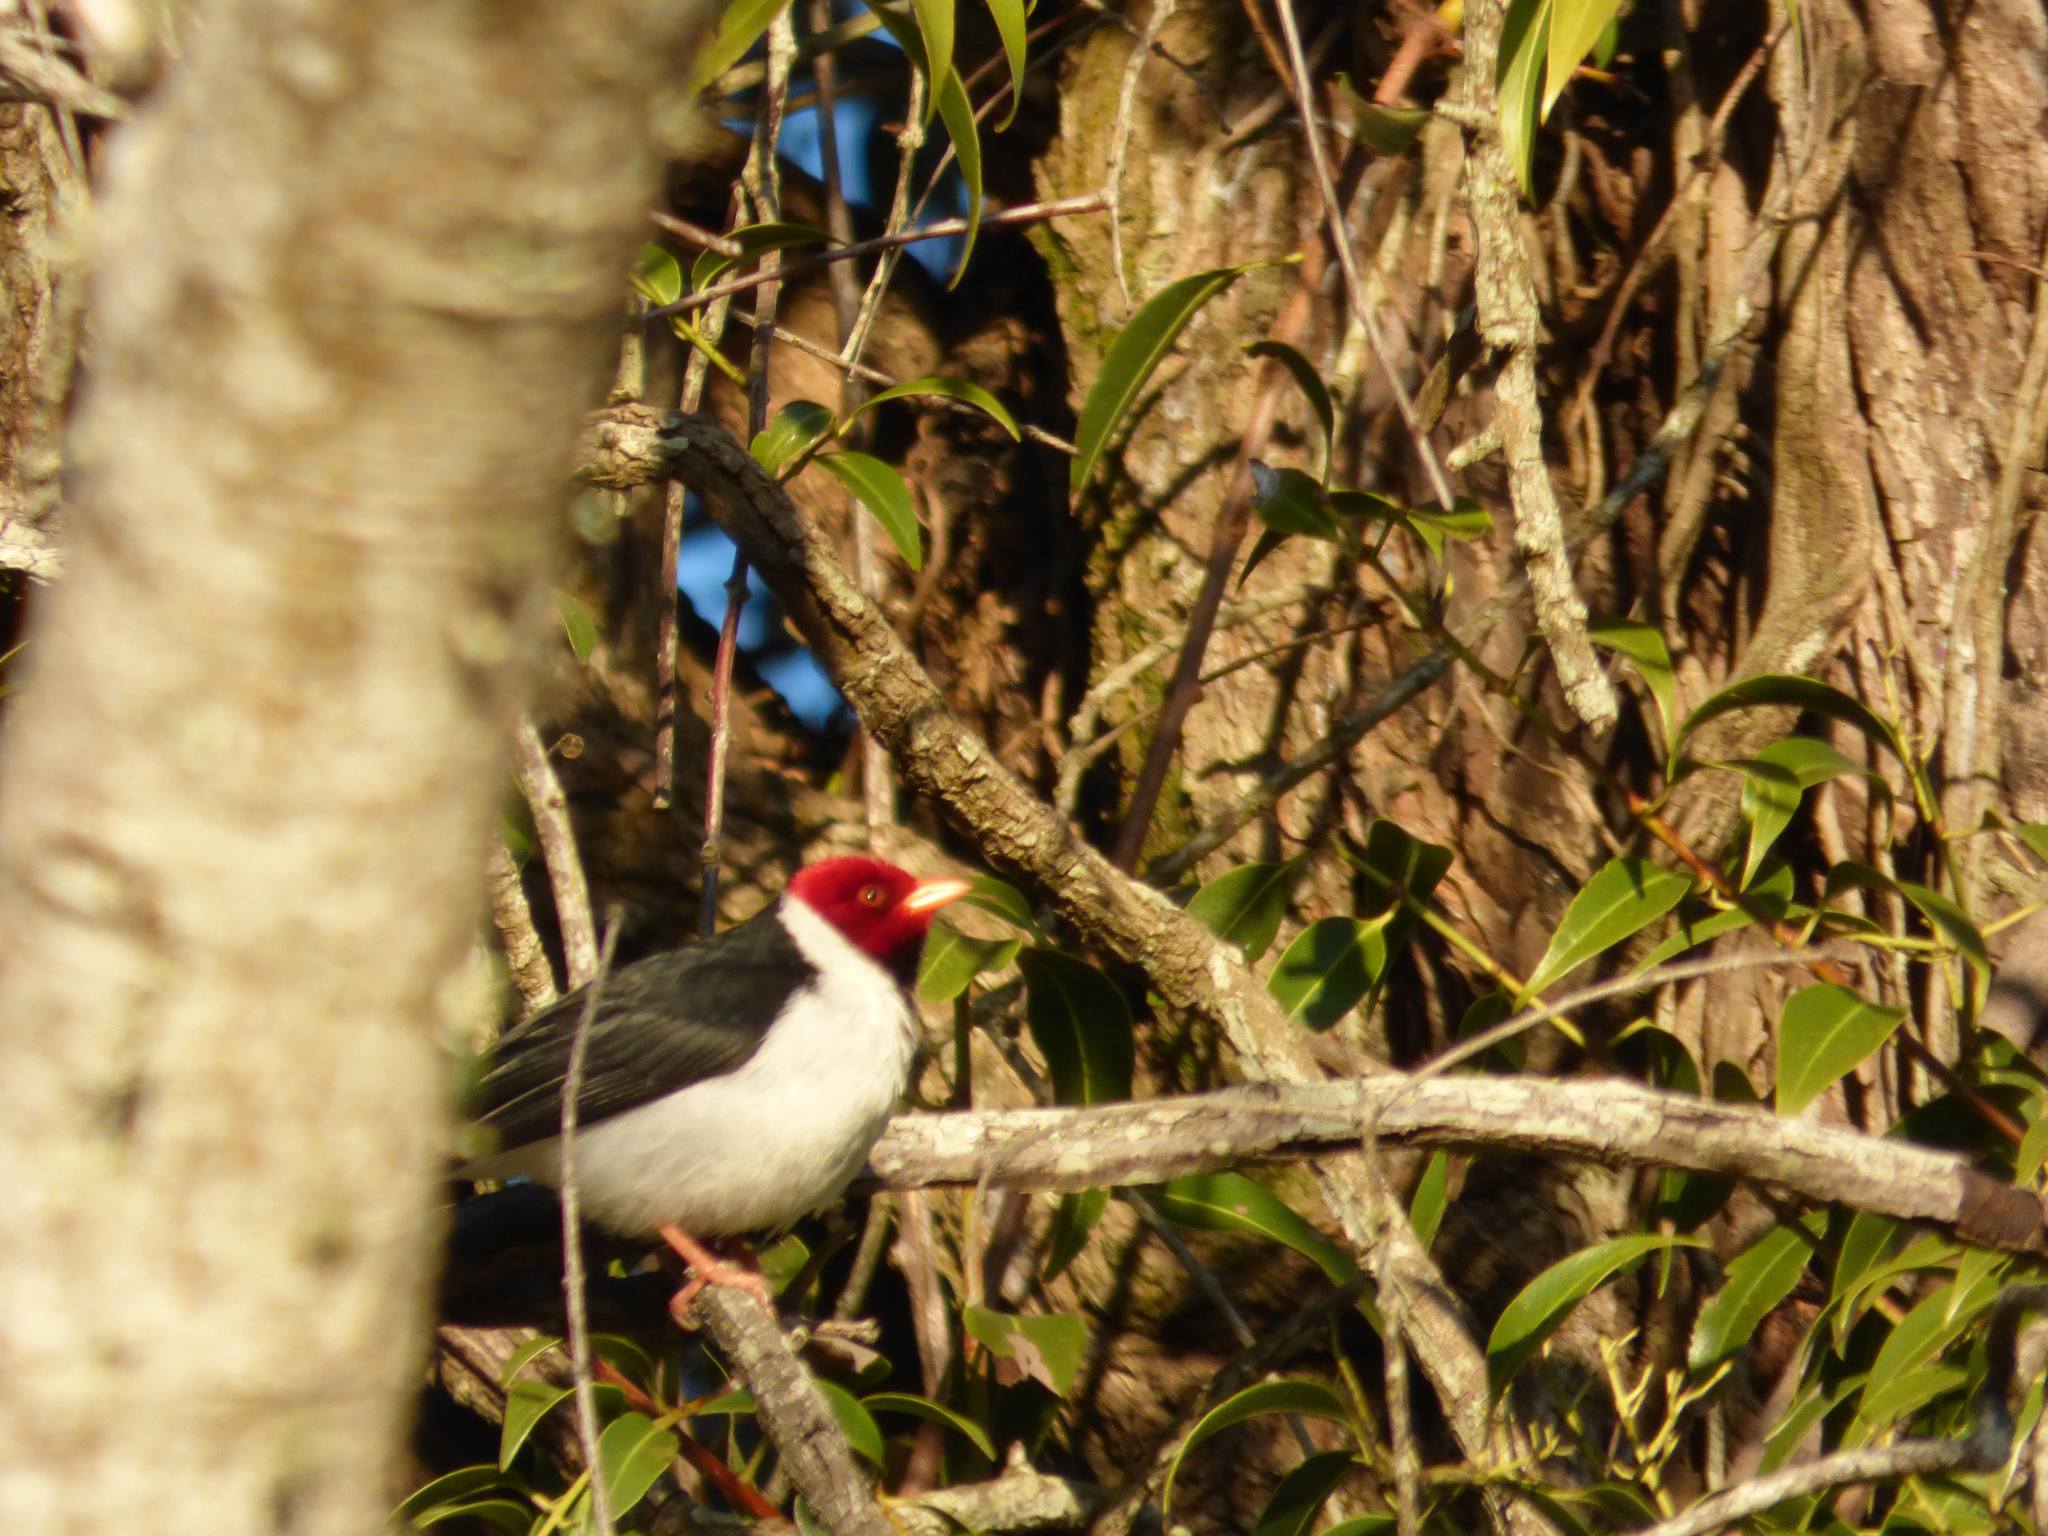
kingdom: Animalia
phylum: Chordata
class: Aves
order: Passeriformes
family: Thraupidae
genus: Paroaria
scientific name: Paroaria capitata
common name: Yellow-billed cardinal
